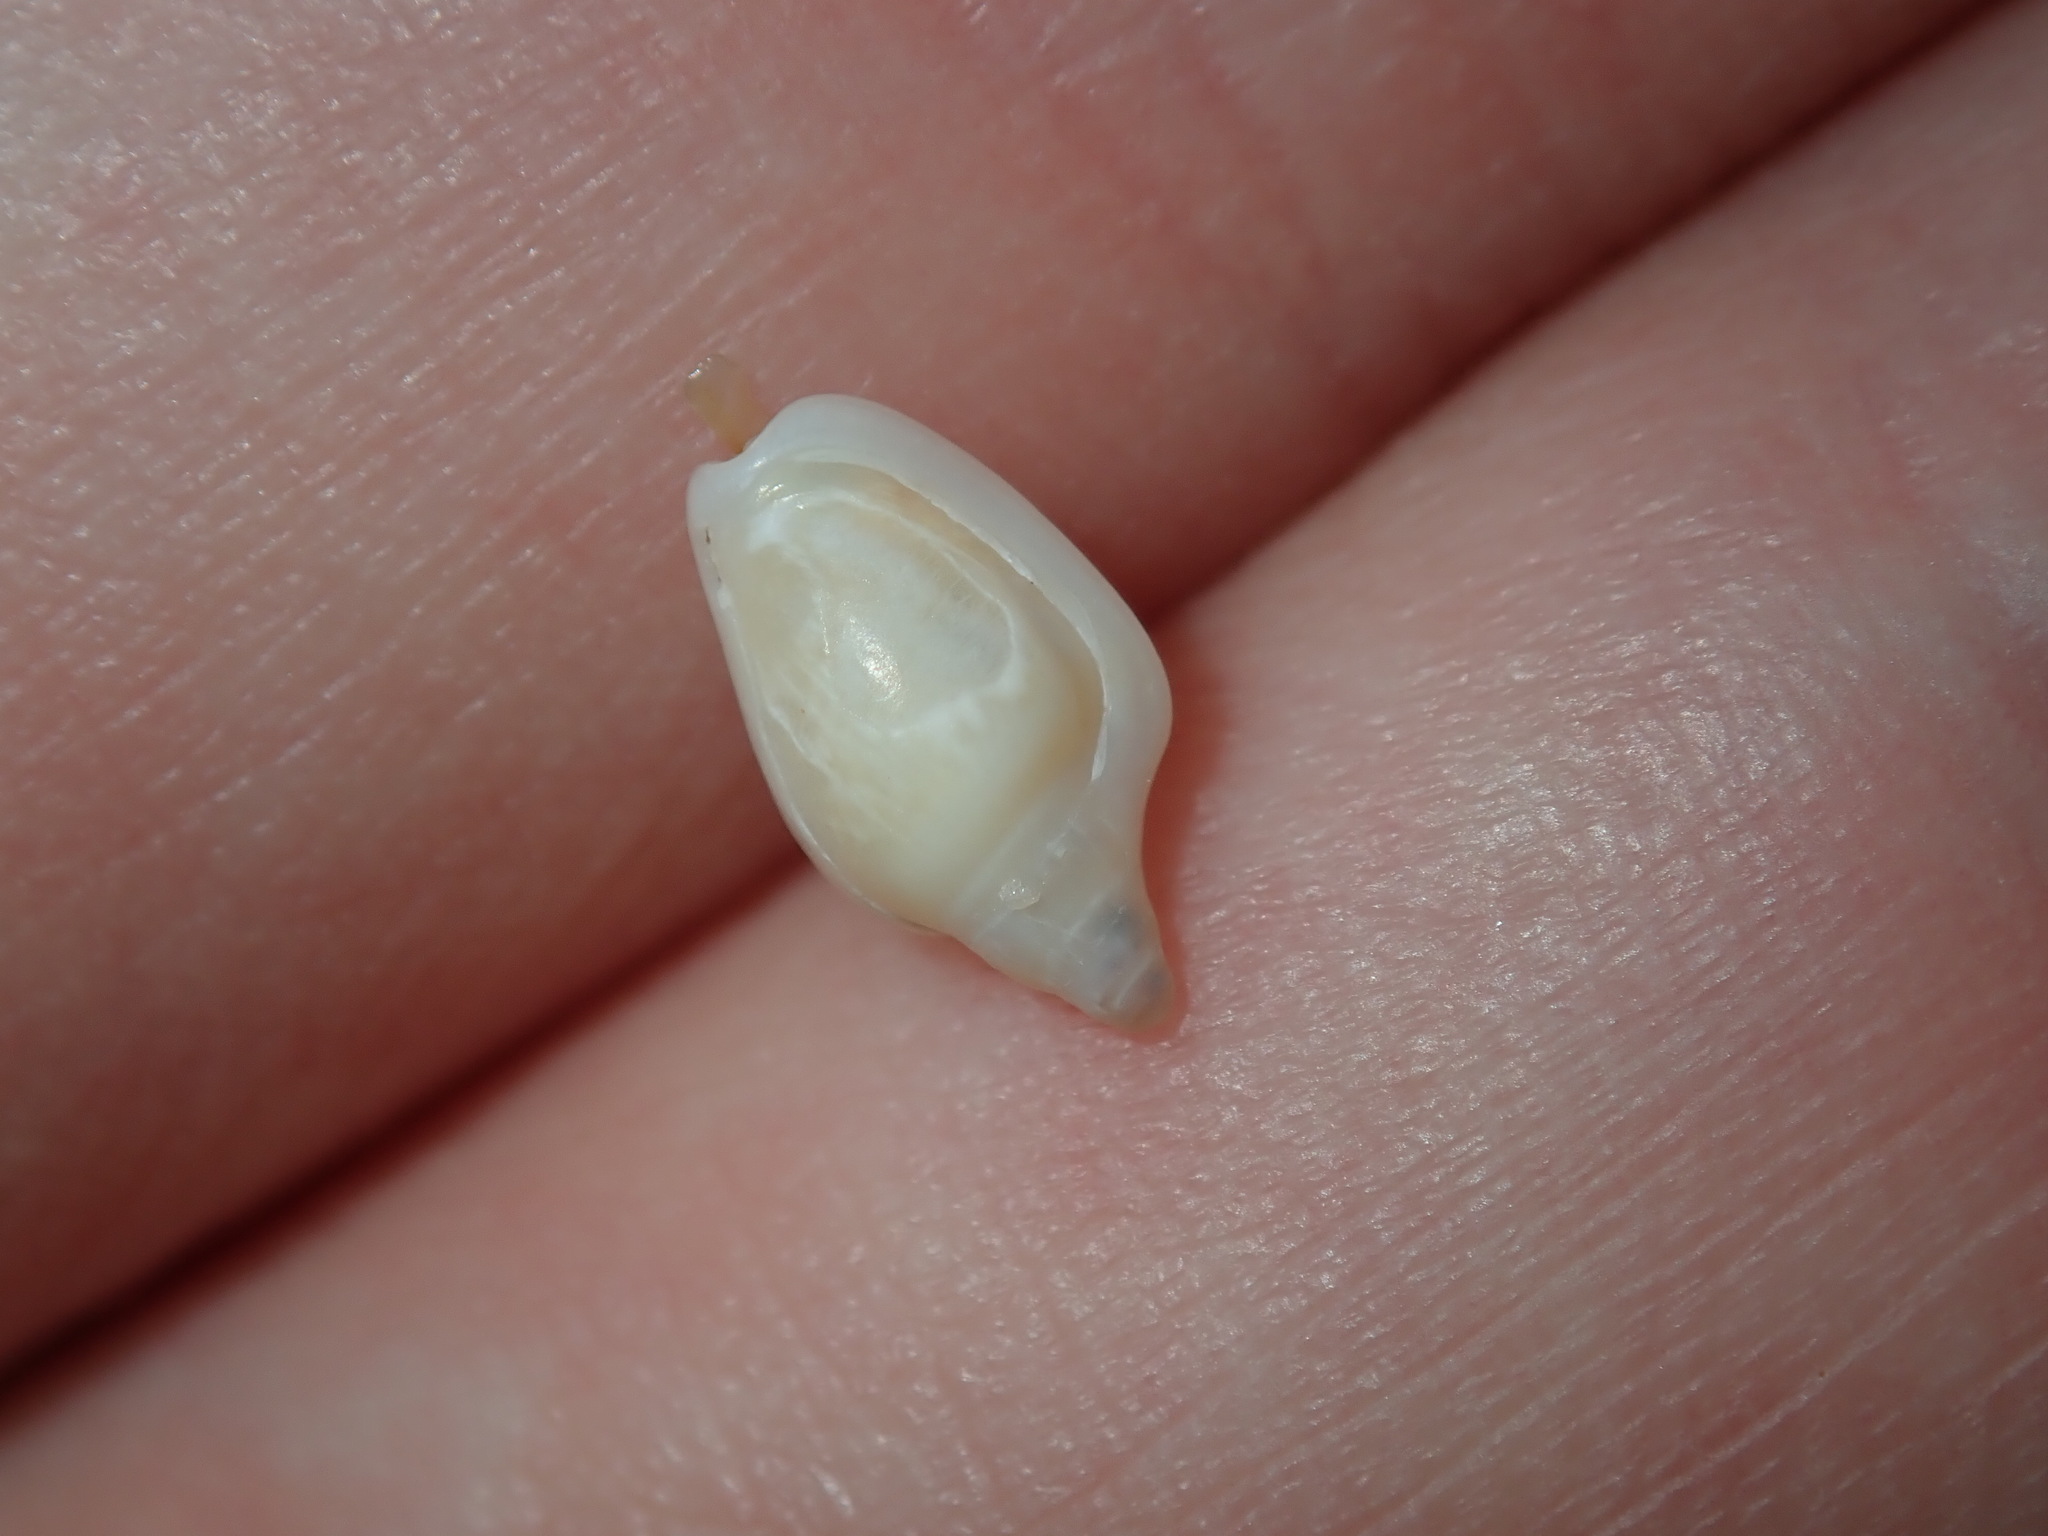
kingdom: Animalia
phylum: Mollusca
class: Gastropoda
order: Neogastropoda
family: Marginellidae
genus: Austroginella
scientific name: Austroginella muscaria
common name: Fly marginella
